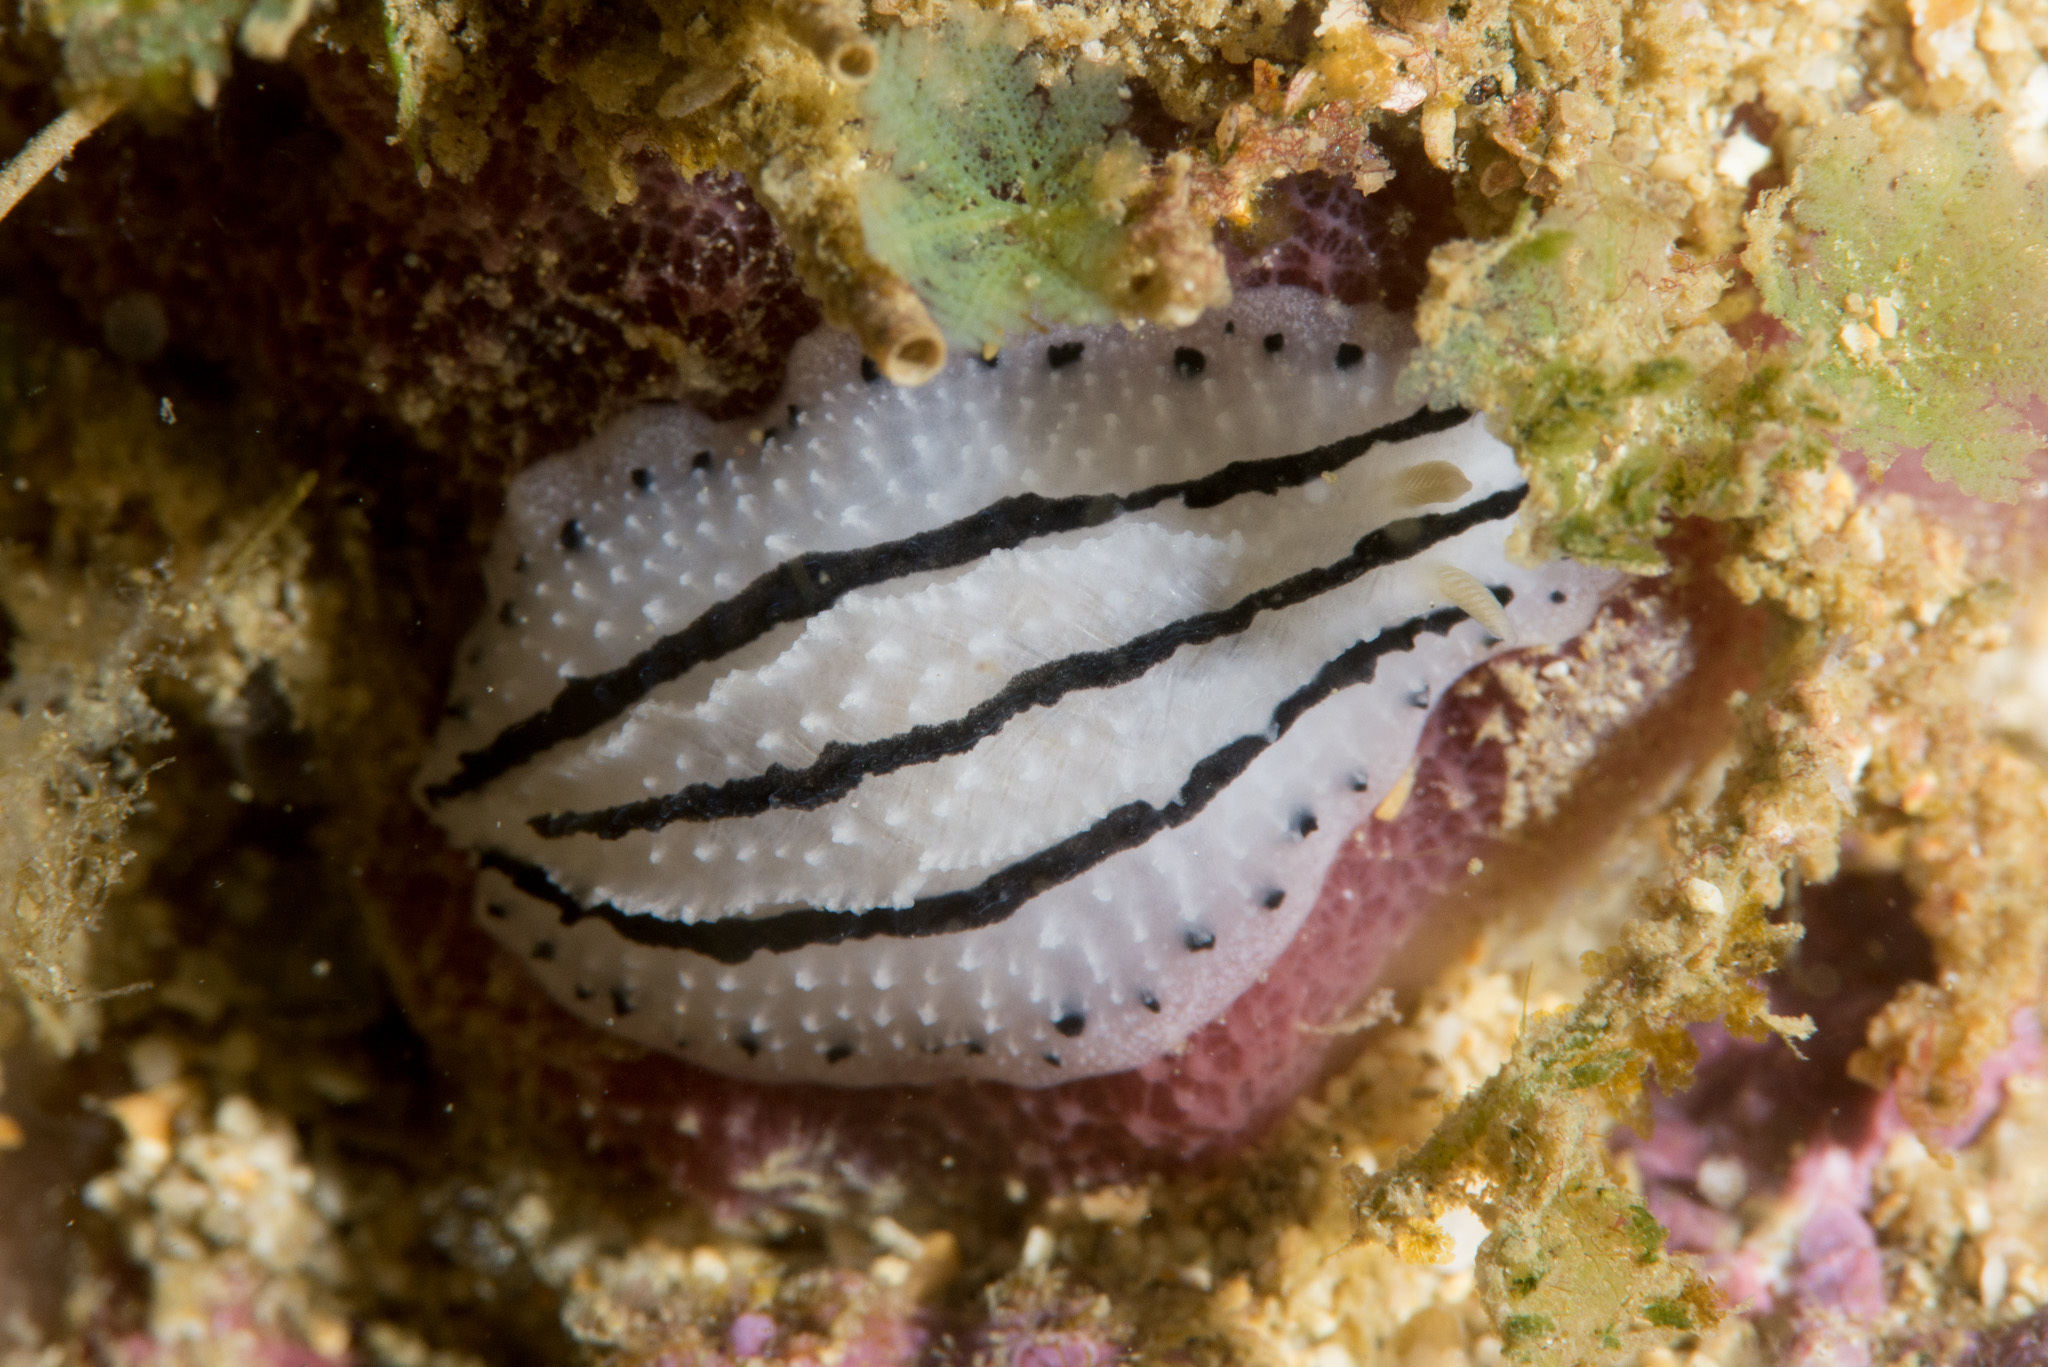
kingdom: Animalia
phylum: Mollusca
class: Gastropoda
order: Nudibranchia
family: Phyllidiidae
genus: Phyllidiopsis
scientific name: Phyllidiopsis phiphiensis
